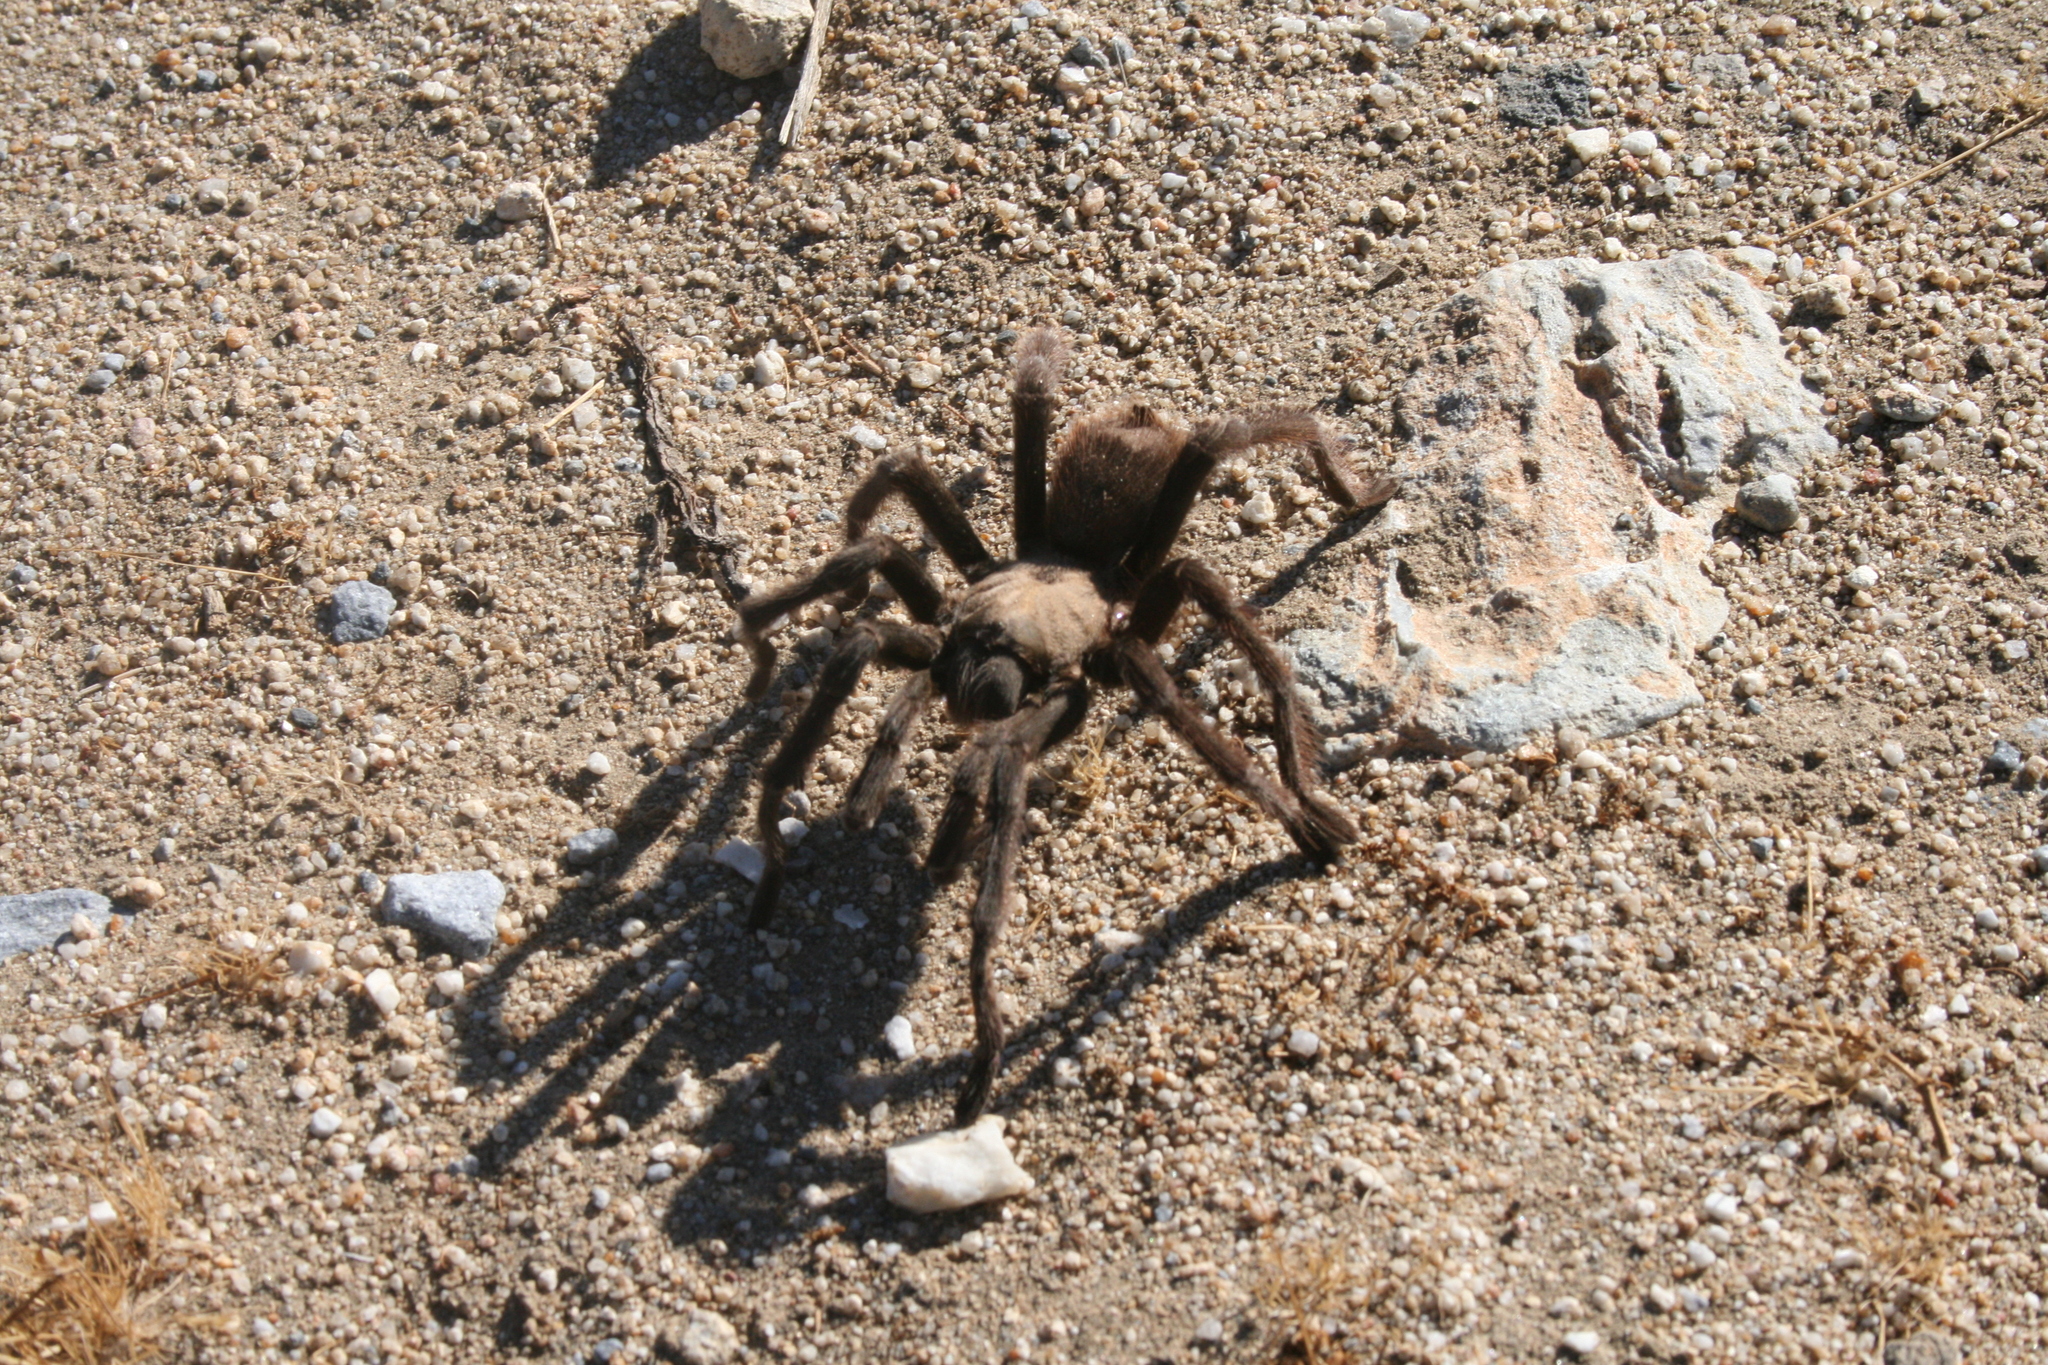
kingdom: Animalia
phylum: Arthropoda
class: Arachnida
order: Araneae
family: Theraphosidae
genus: Aphonopelma
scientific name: Aphonopelma eutylenum
